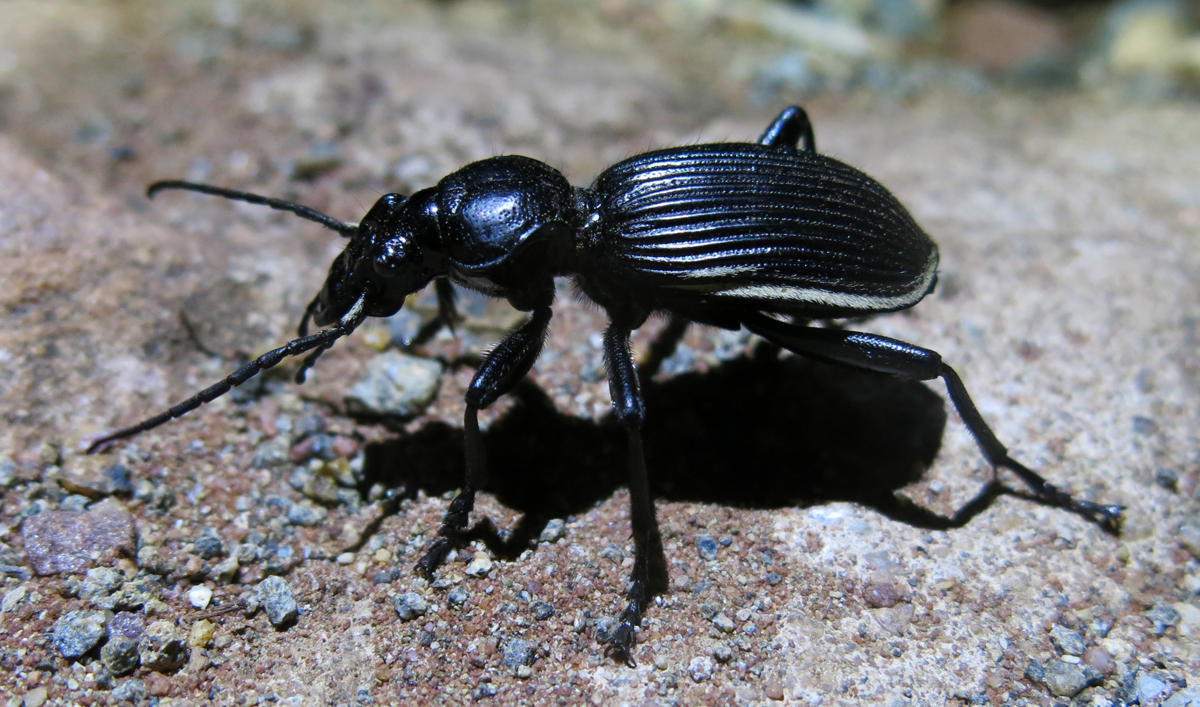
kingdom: Animalia
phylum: Arthropoda
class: Insecta
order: Coleoptera
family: Carabidae
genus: Anthia
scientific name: Anthia massilicata
